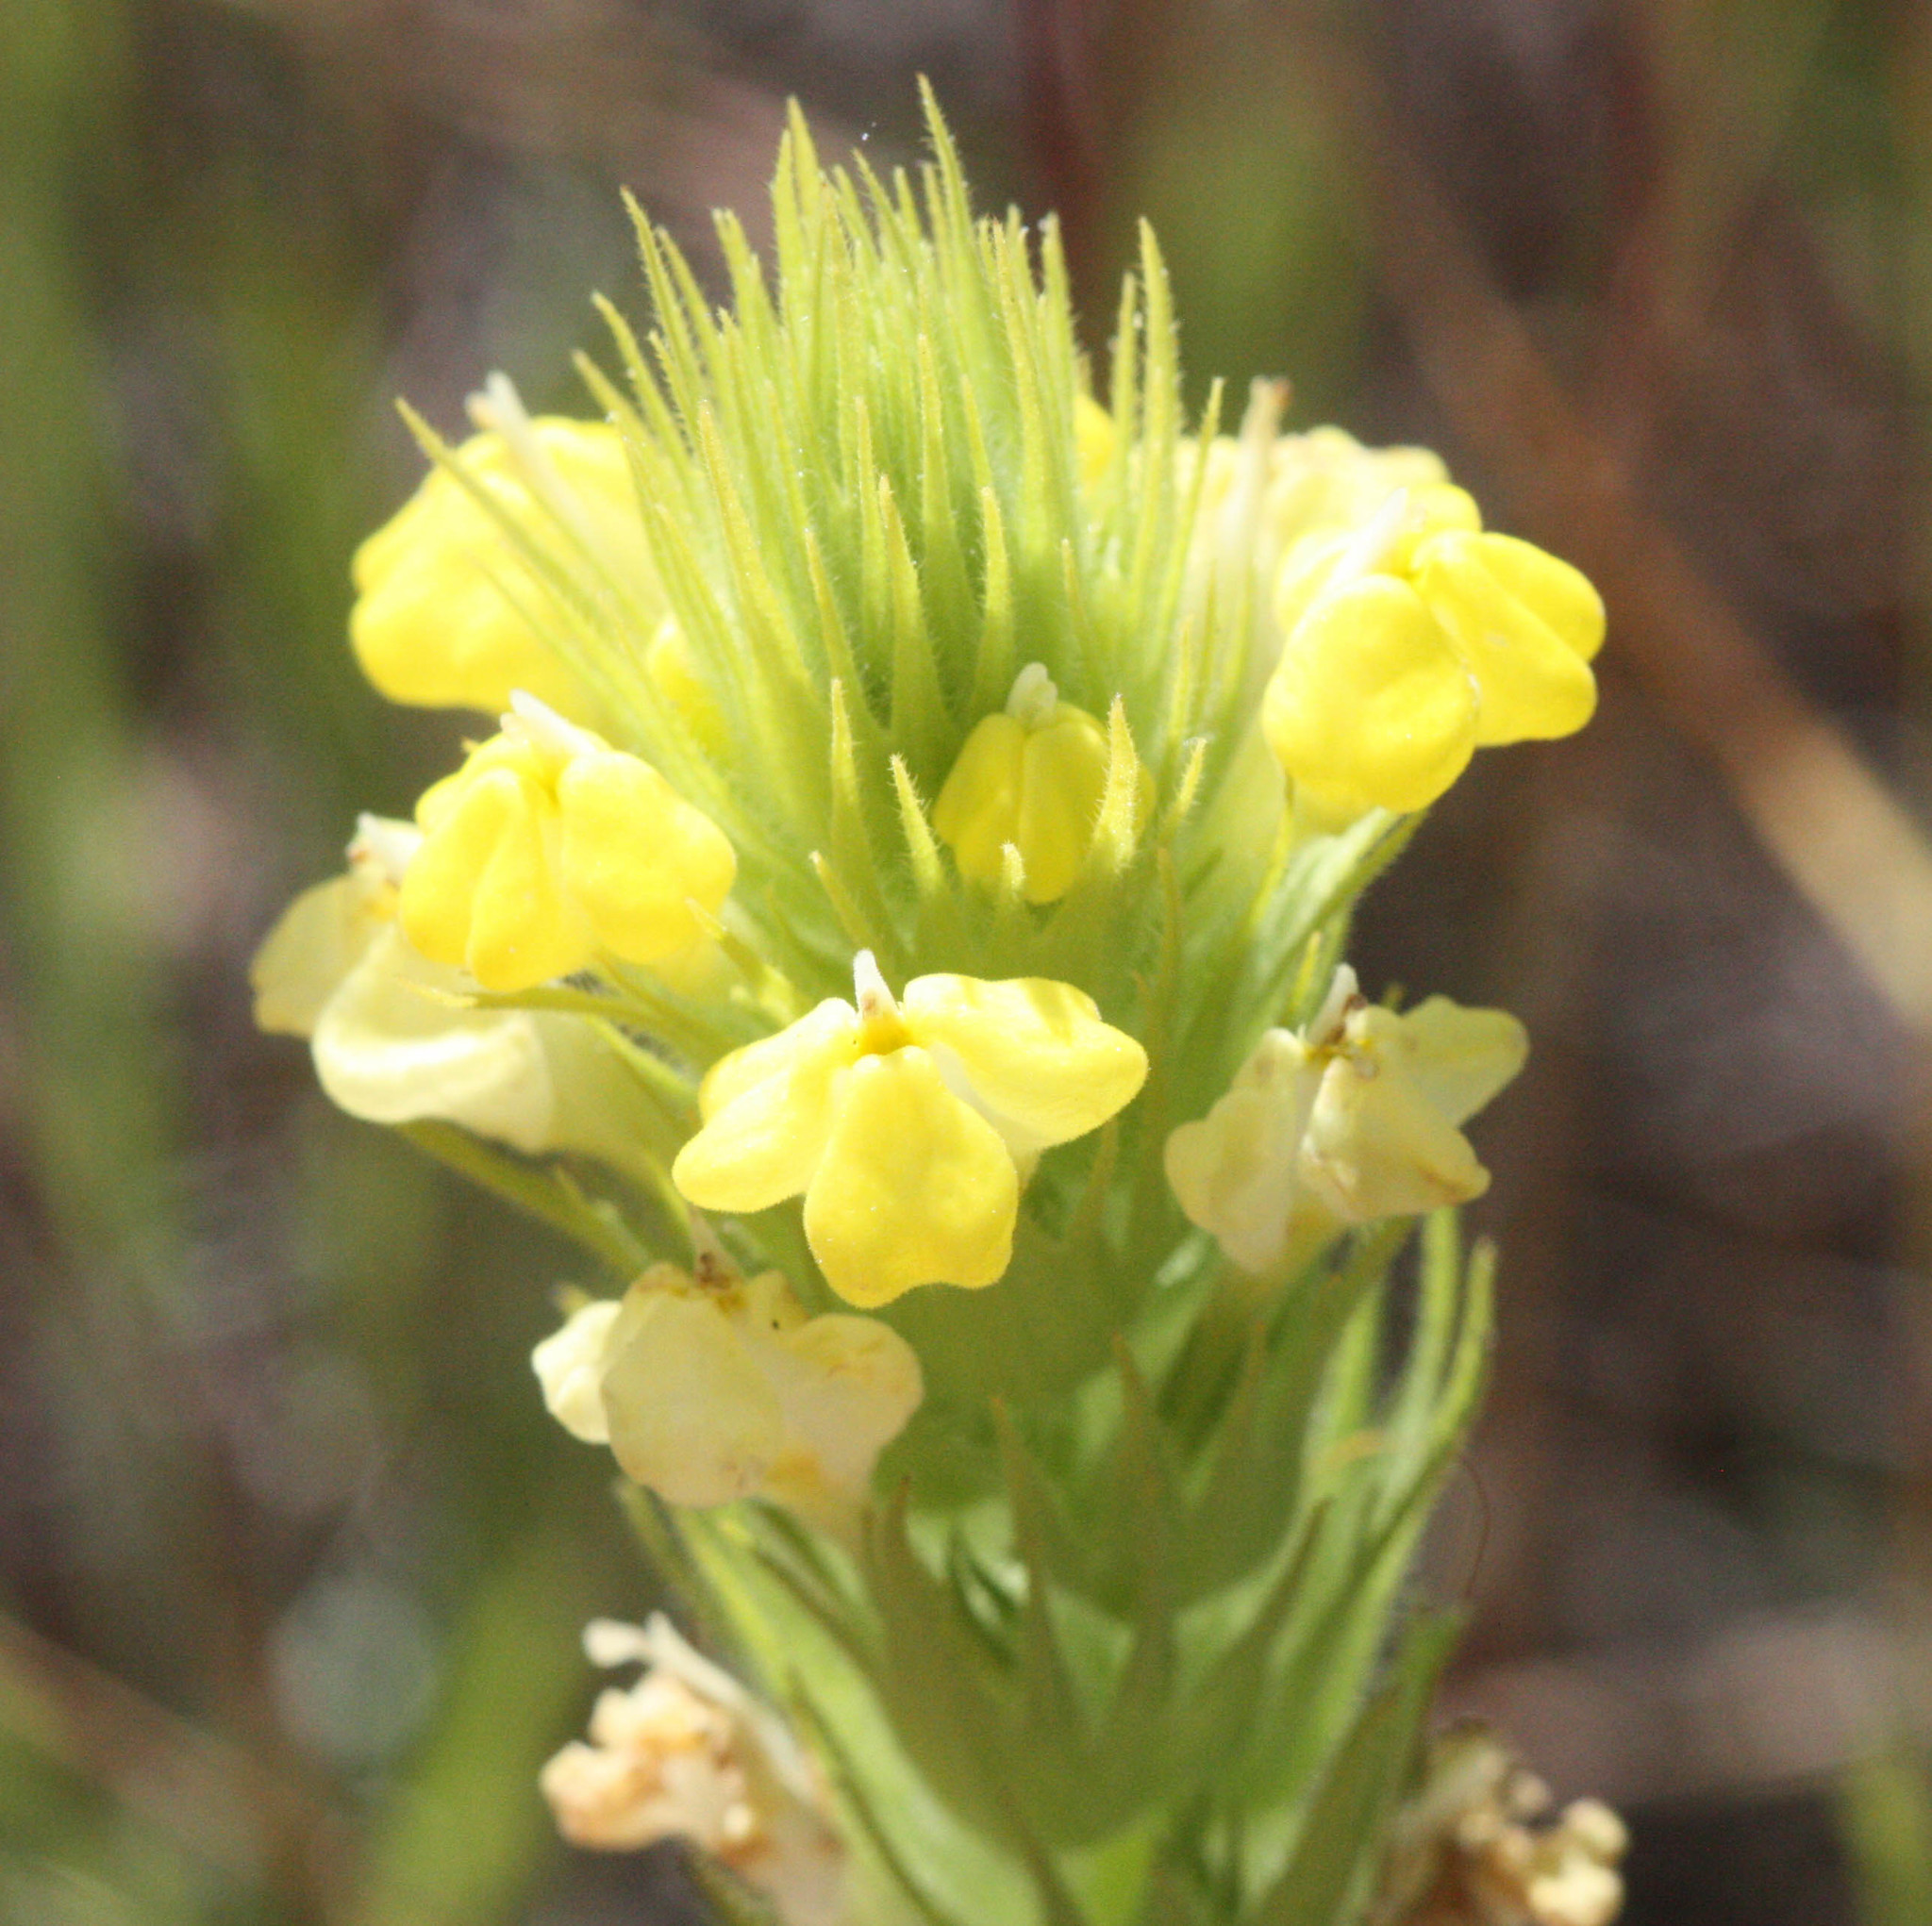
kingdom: Plantae
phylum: Tracheophyta
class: Magnoliopsida
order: Lamiales
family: Orobanchaceae
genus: Castilleja
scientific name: Castilleja rubicundula
